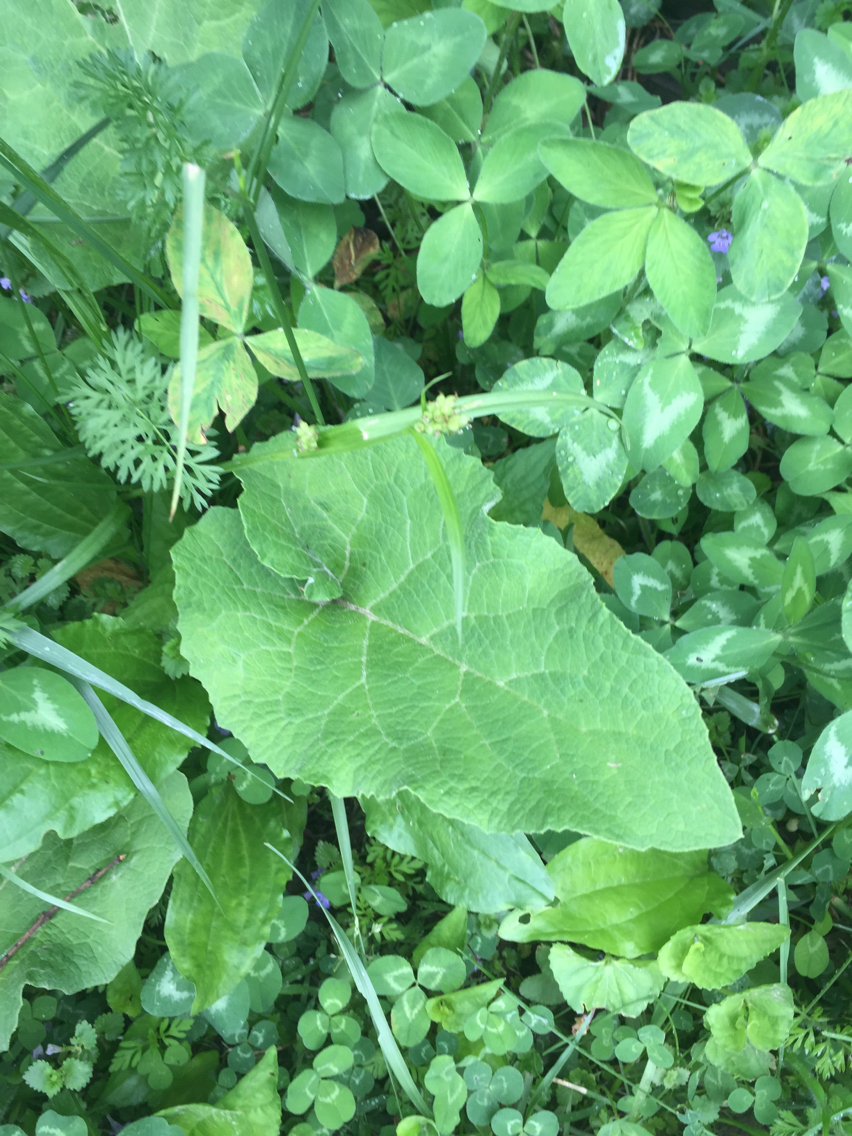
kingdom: Plantae
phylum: Tracheophyta
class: Magnoliopsida
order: Asterales
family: Asteraceae
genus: Arctium
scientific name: Arctium lappa
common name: Greater burdock
